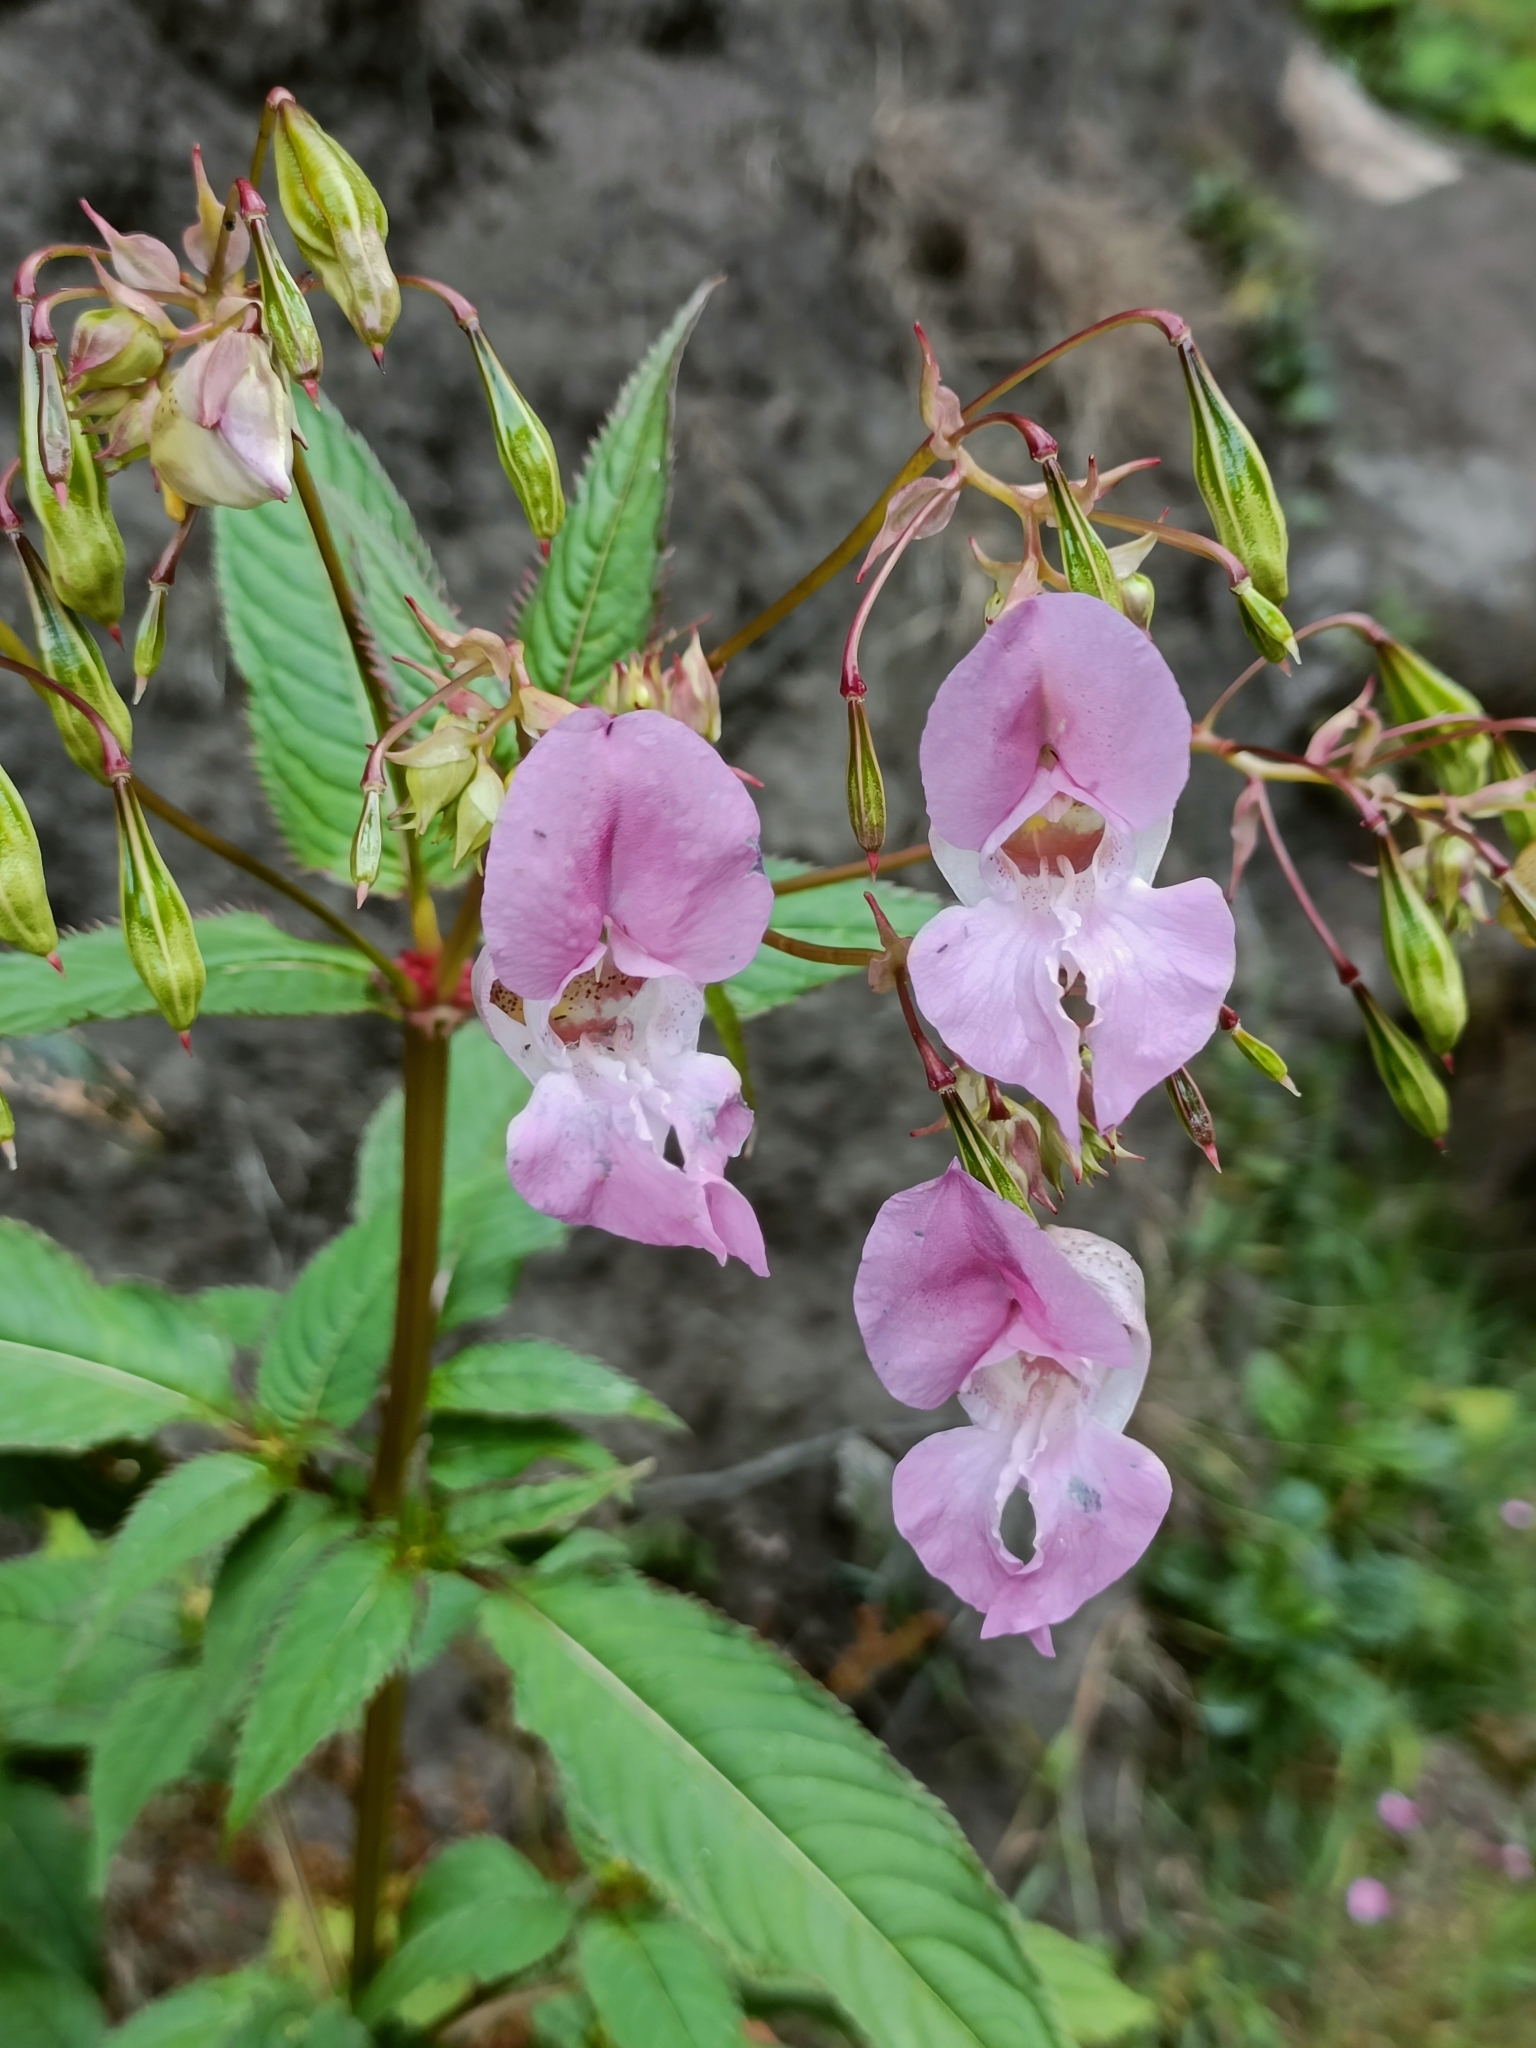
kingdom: Plantae
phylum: Tracheophyta
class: Magnoliopsida
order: Ericales
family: Balsaminaceae
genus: Impatiens
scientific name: Impatiens glandulifera
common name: Himalayan balsam
